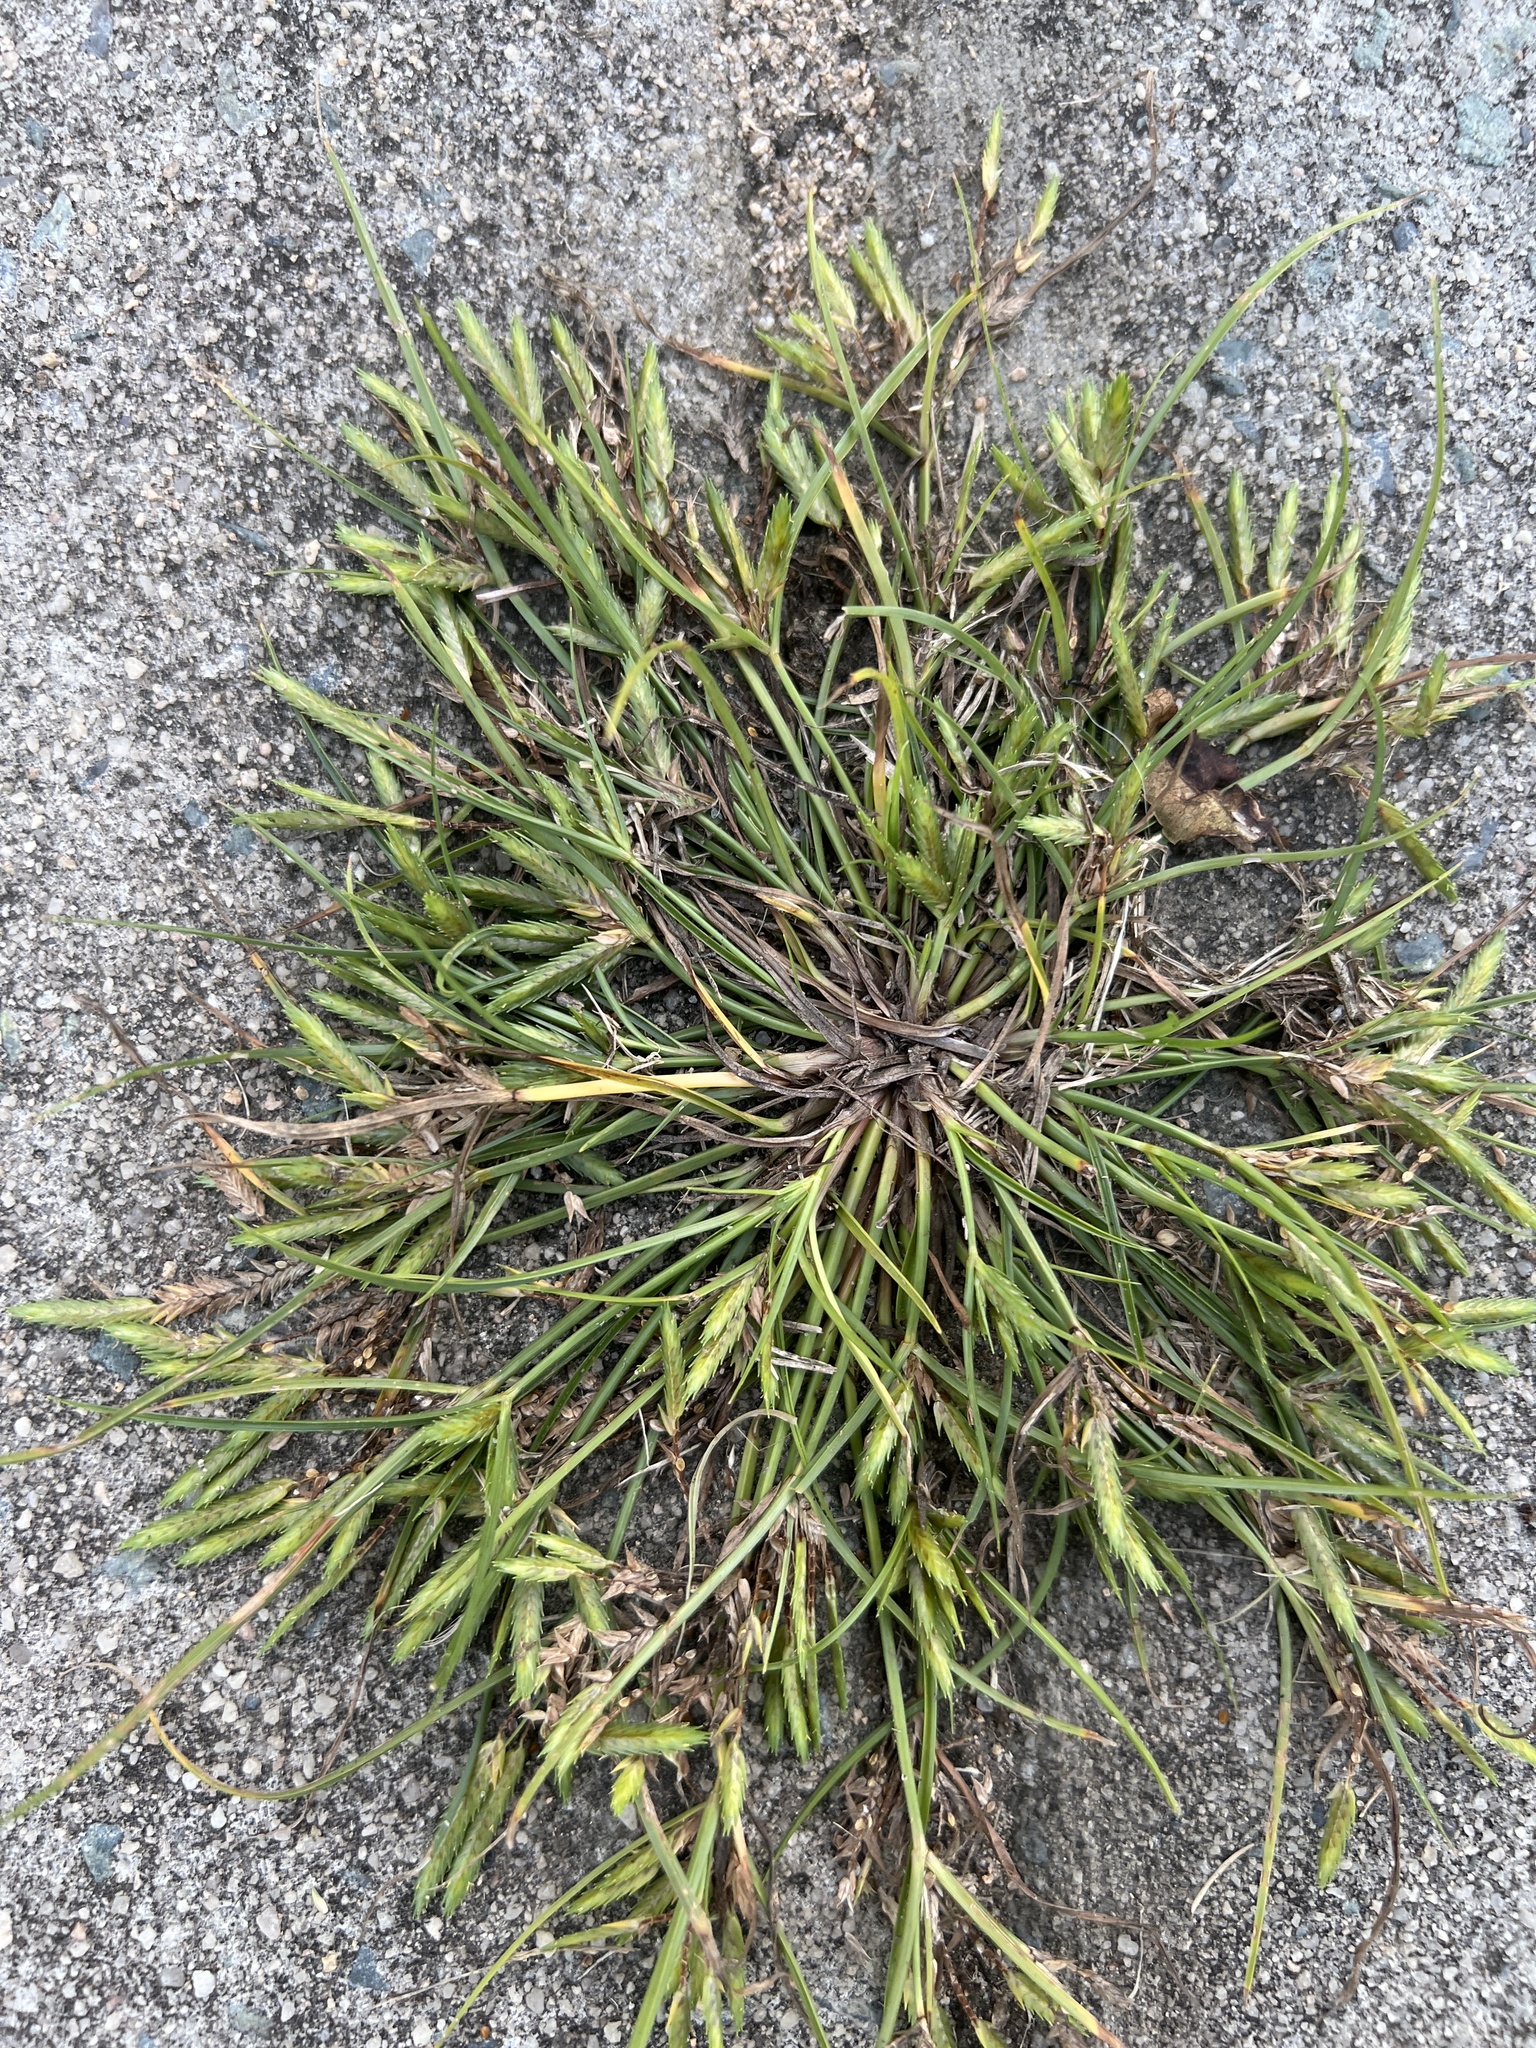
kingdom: Plantae
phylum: Tracheophyta
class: Liliopsida
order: Poales
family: Cyperaceae
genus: Cyperus
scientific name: Cyperus compressus
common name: Poorland flatsedge
